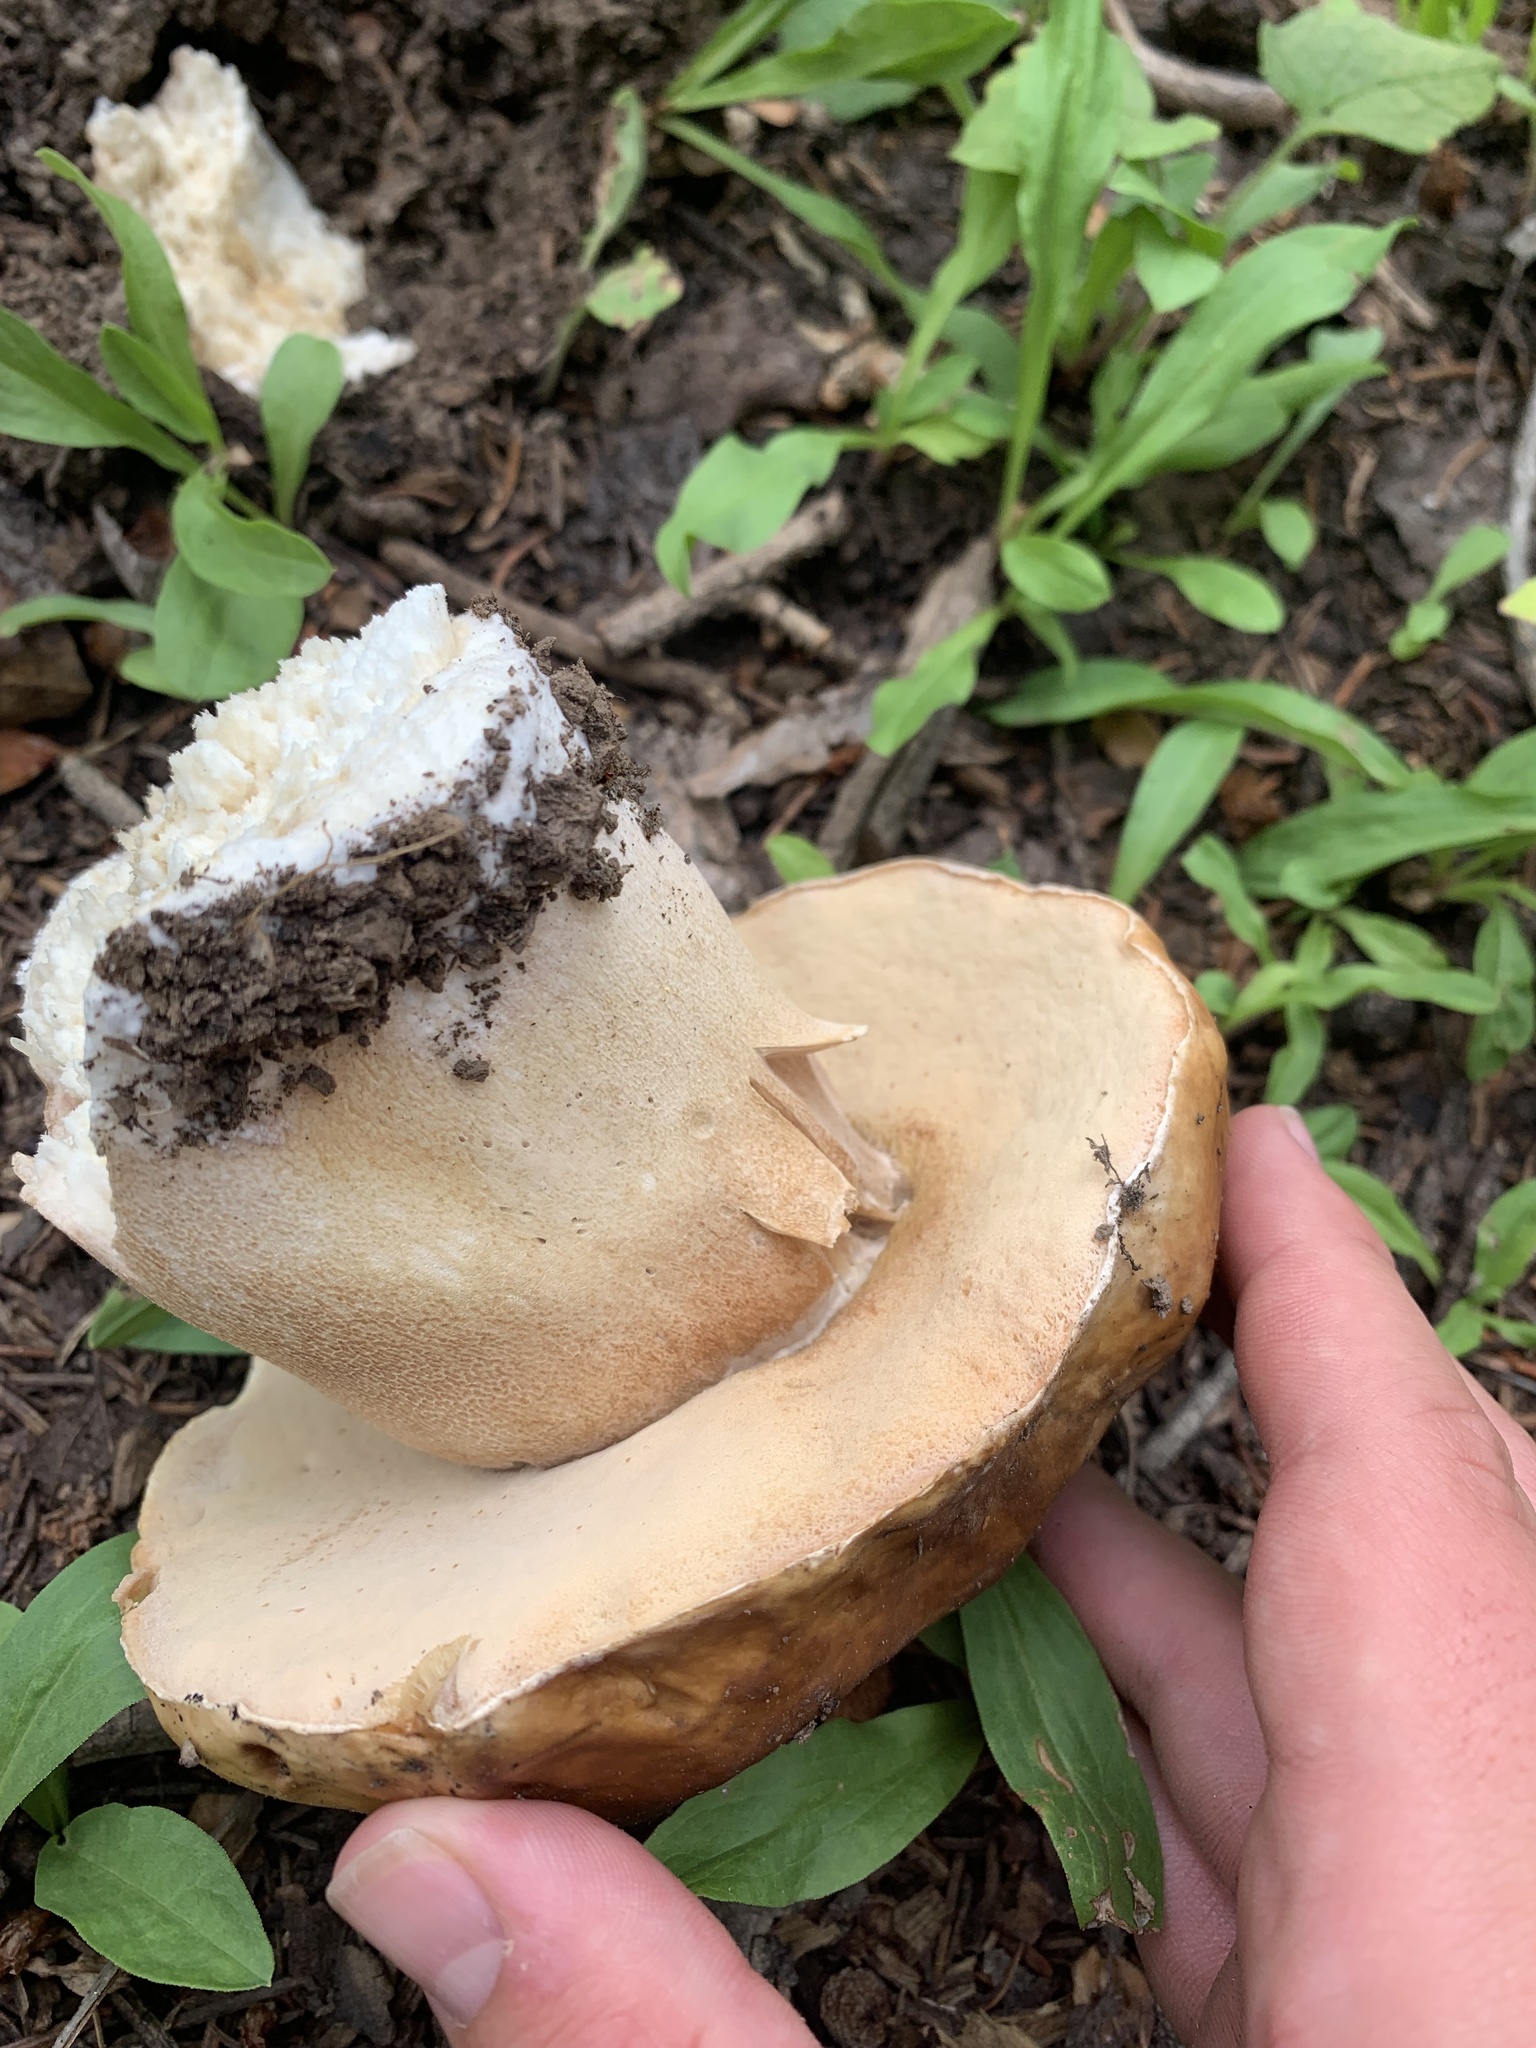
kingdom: Fungi
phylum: Basidiomycota
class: Agaricomycetes
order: Boletales
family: Boletaceae
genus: Boletus
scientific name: Boletus edulis
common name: Cep
